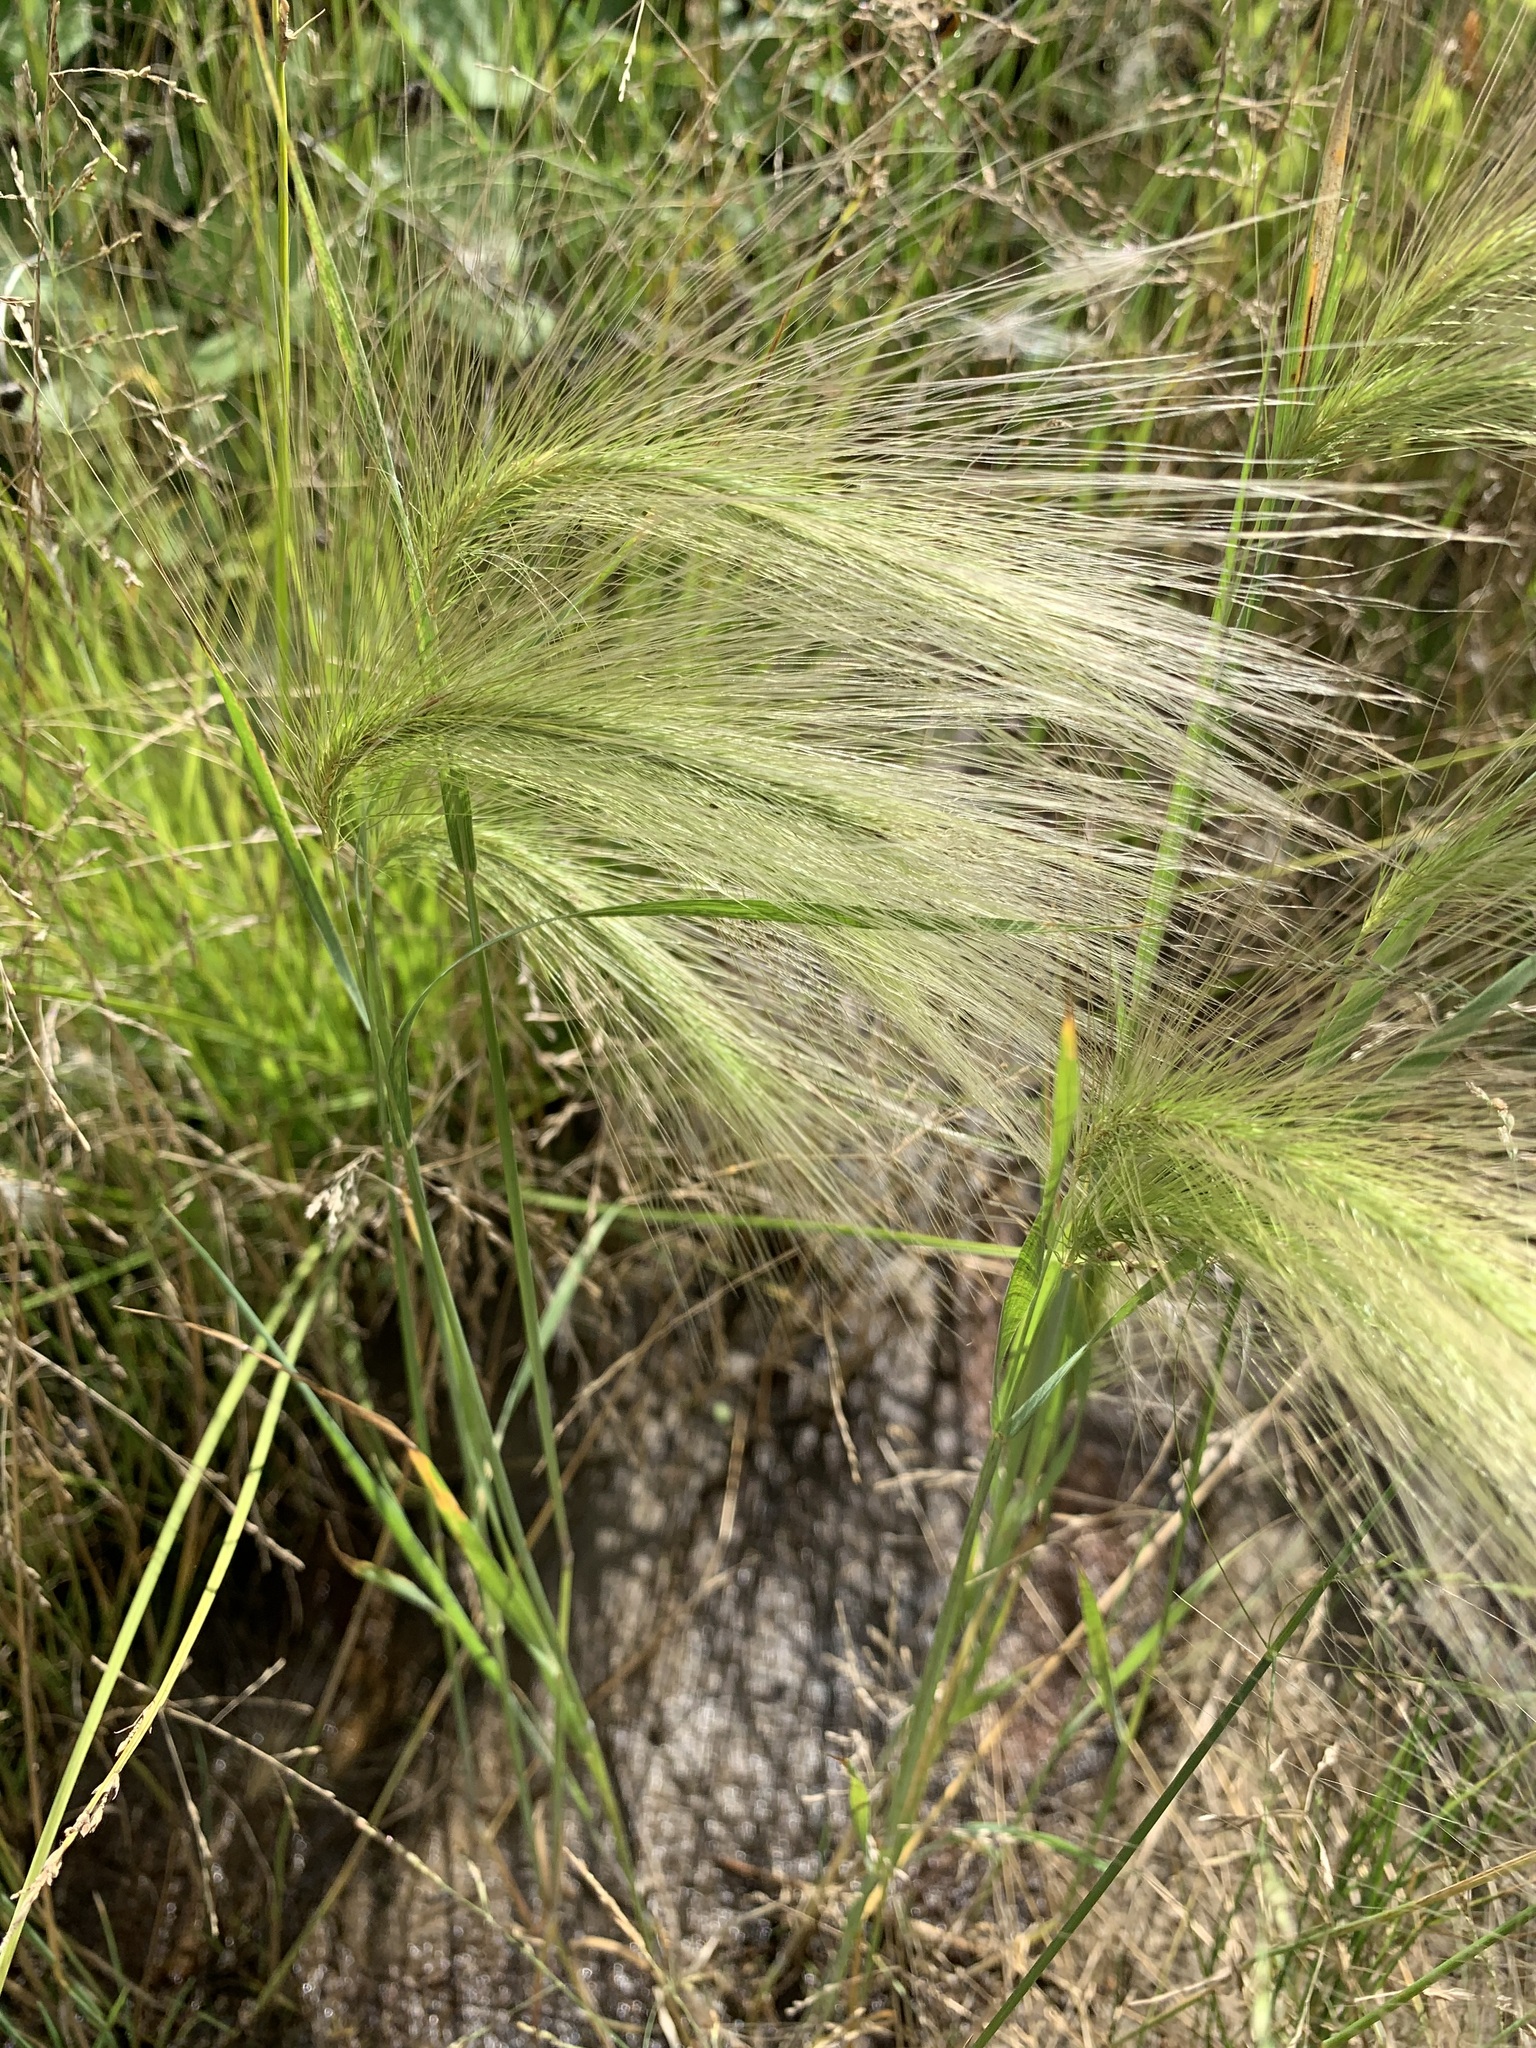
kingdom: Plantae
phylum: Tracheophyta
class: Liliopsida
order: Poales
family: Poaceae
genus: Hordeum
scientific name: Hordeum jubatum
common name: Foxtail barley
